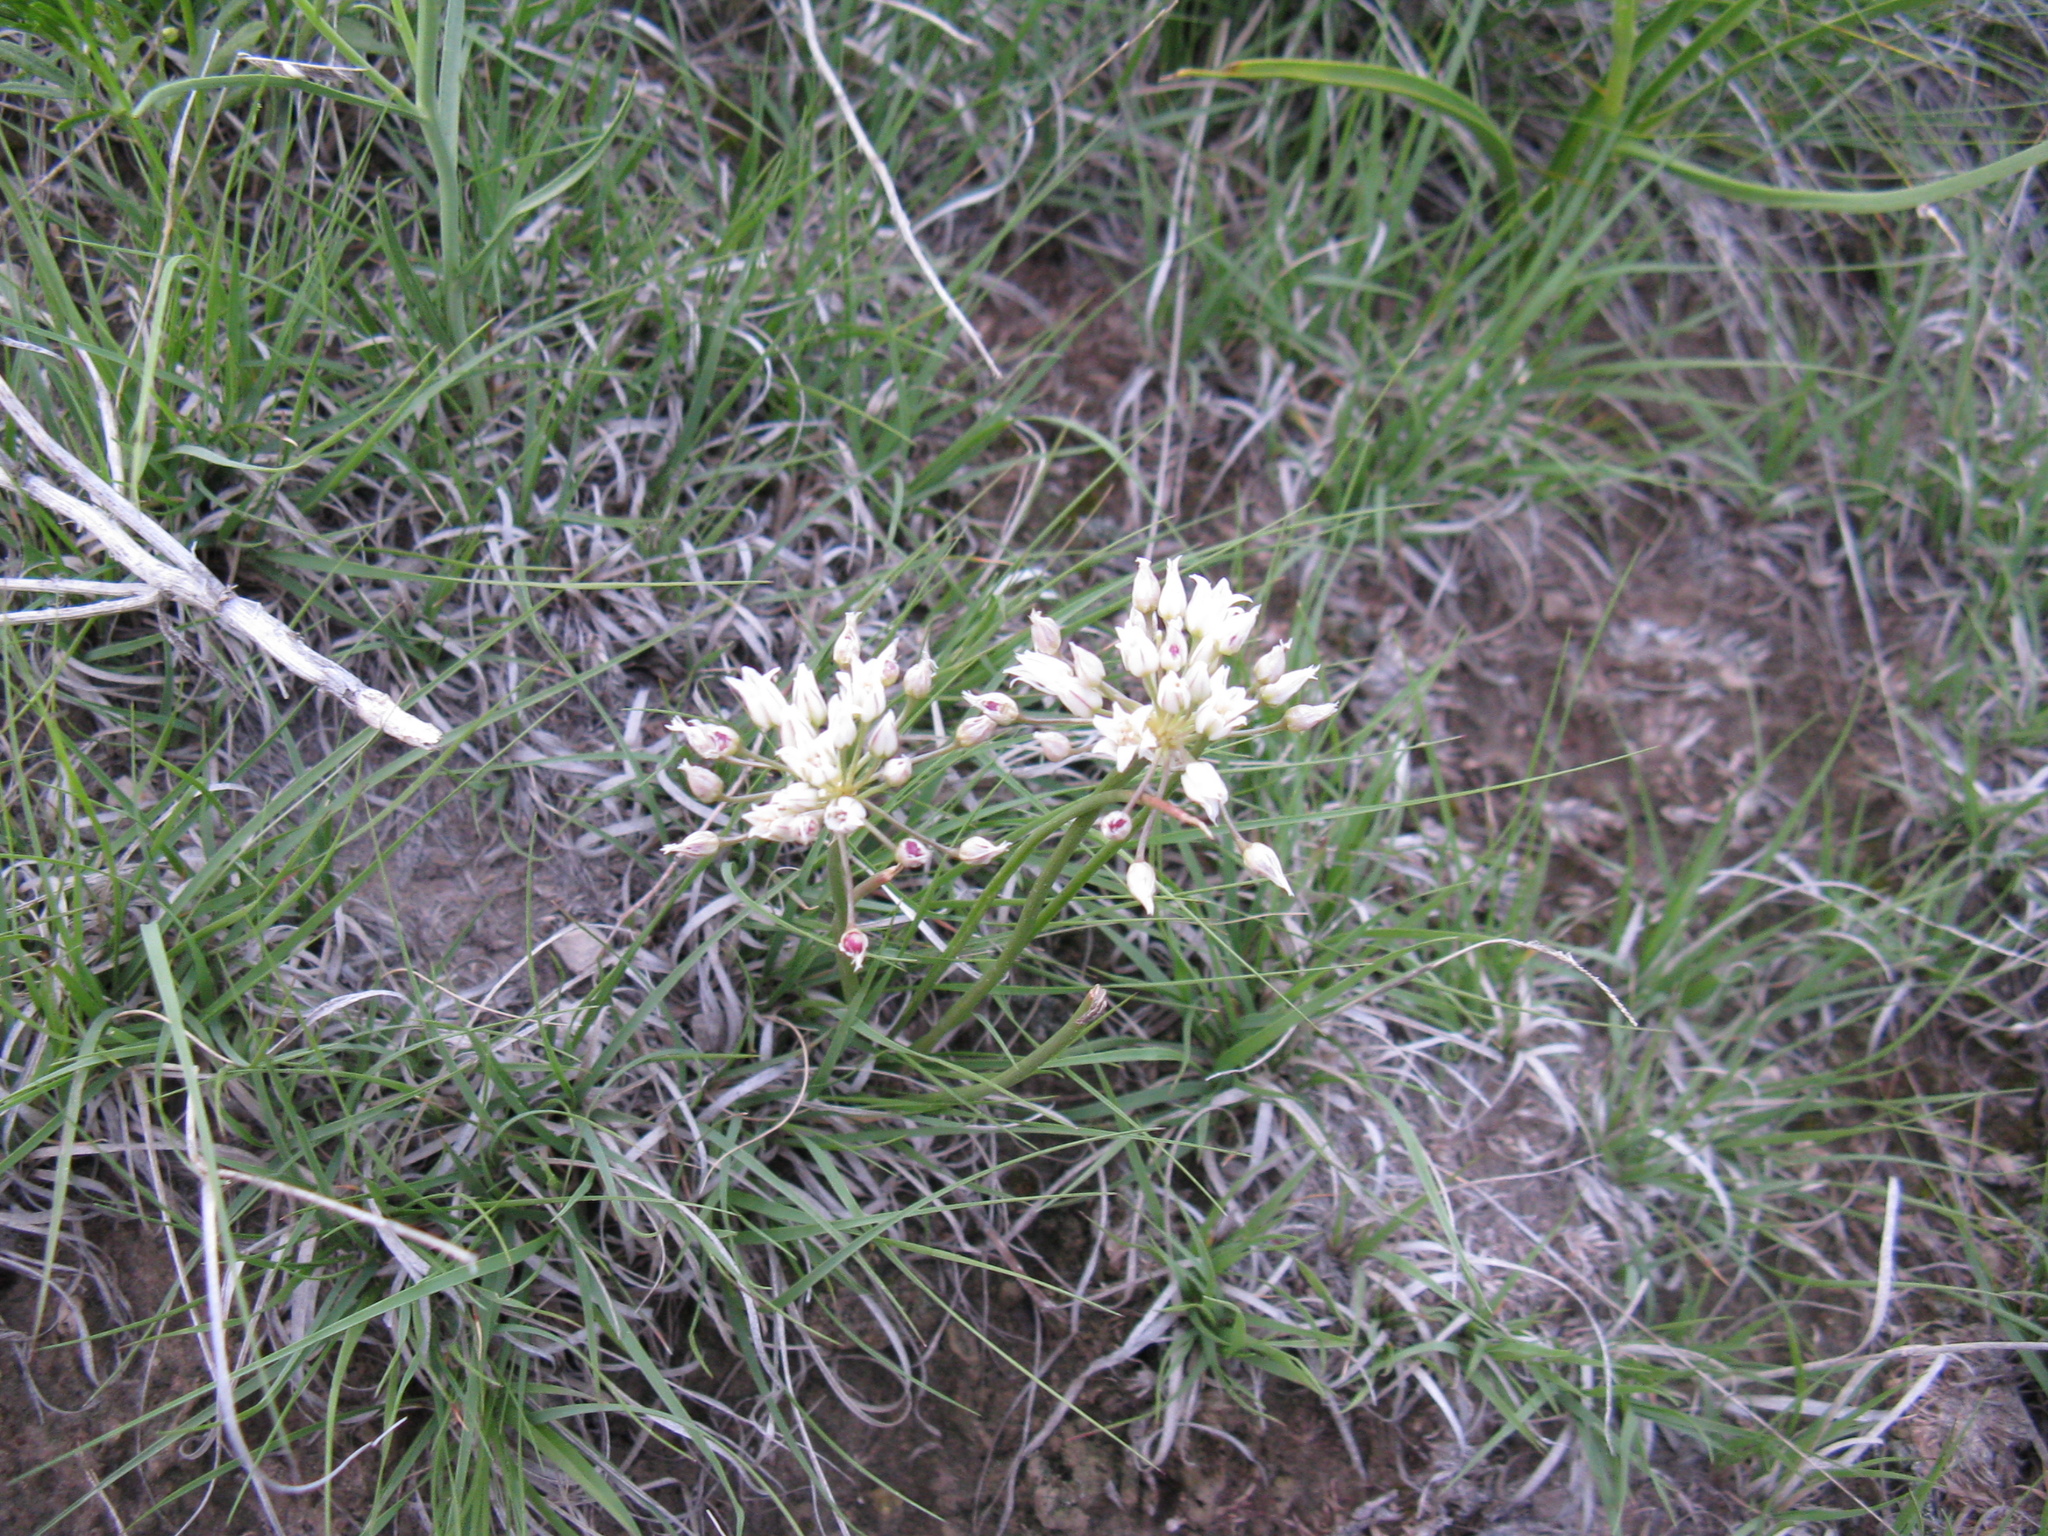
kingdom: Plantae
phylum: Tracheophyta
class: Liliopsida
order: Asparagales
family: Amaryllidaceae
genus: Allium
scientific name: Allium textile
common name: Prairie onion
